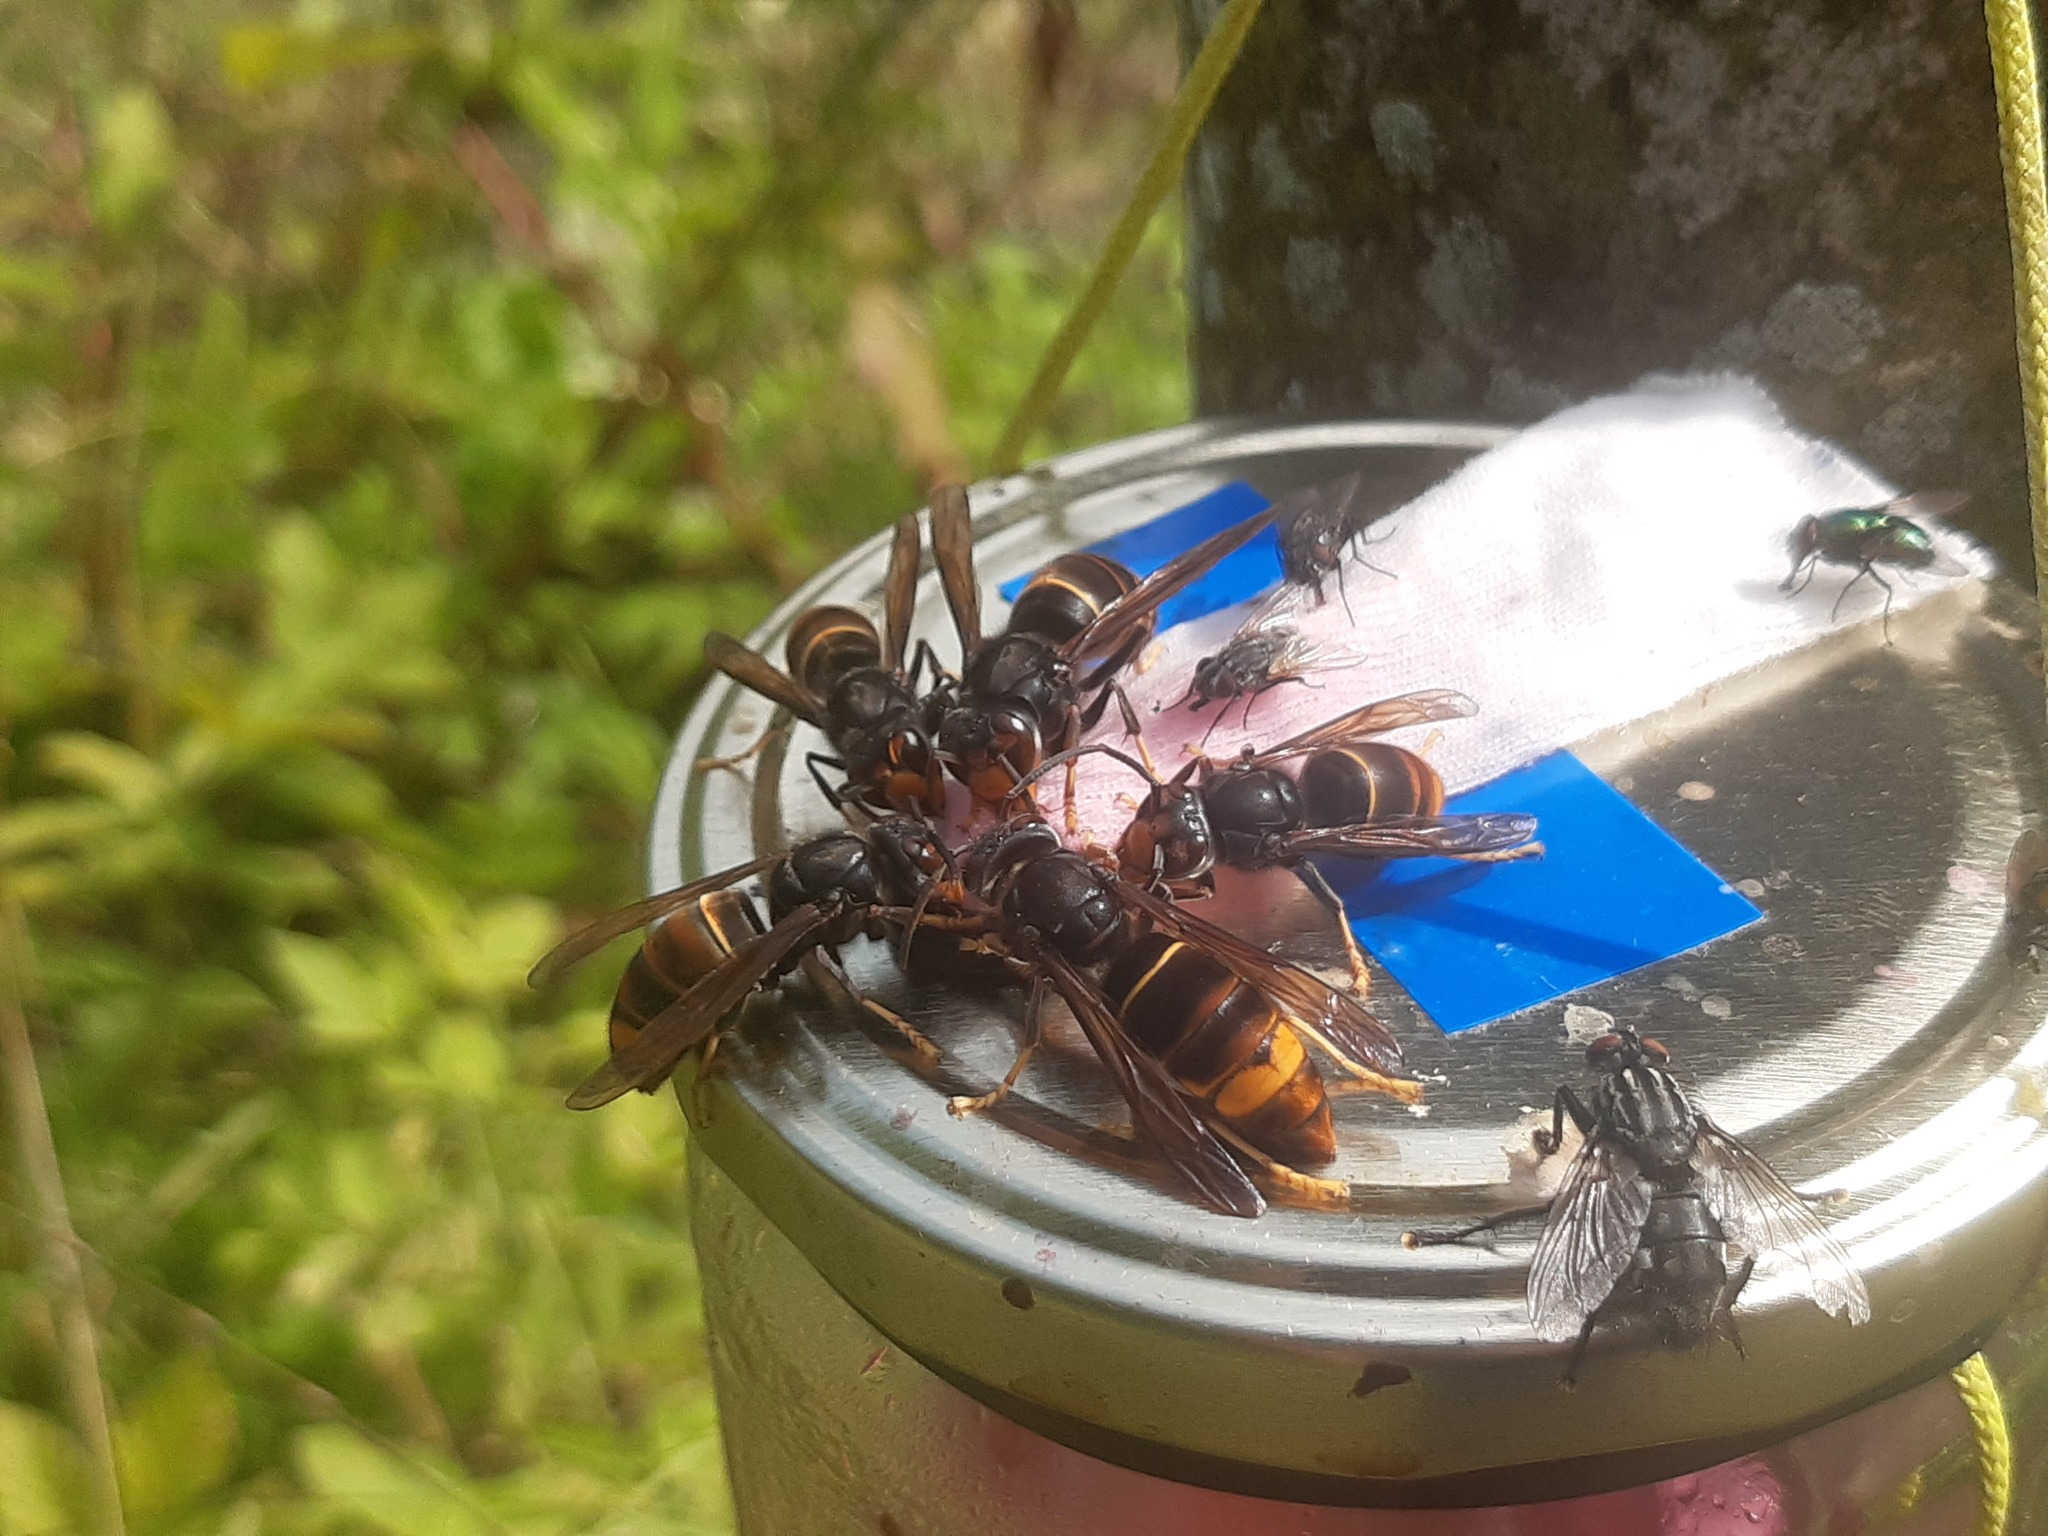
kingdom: Animalia
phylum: Arthropoda
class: Insecta
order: Hymenoptera
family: Vespidae
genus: Vespa
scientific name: Vespa velutina
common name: Asian hornet
